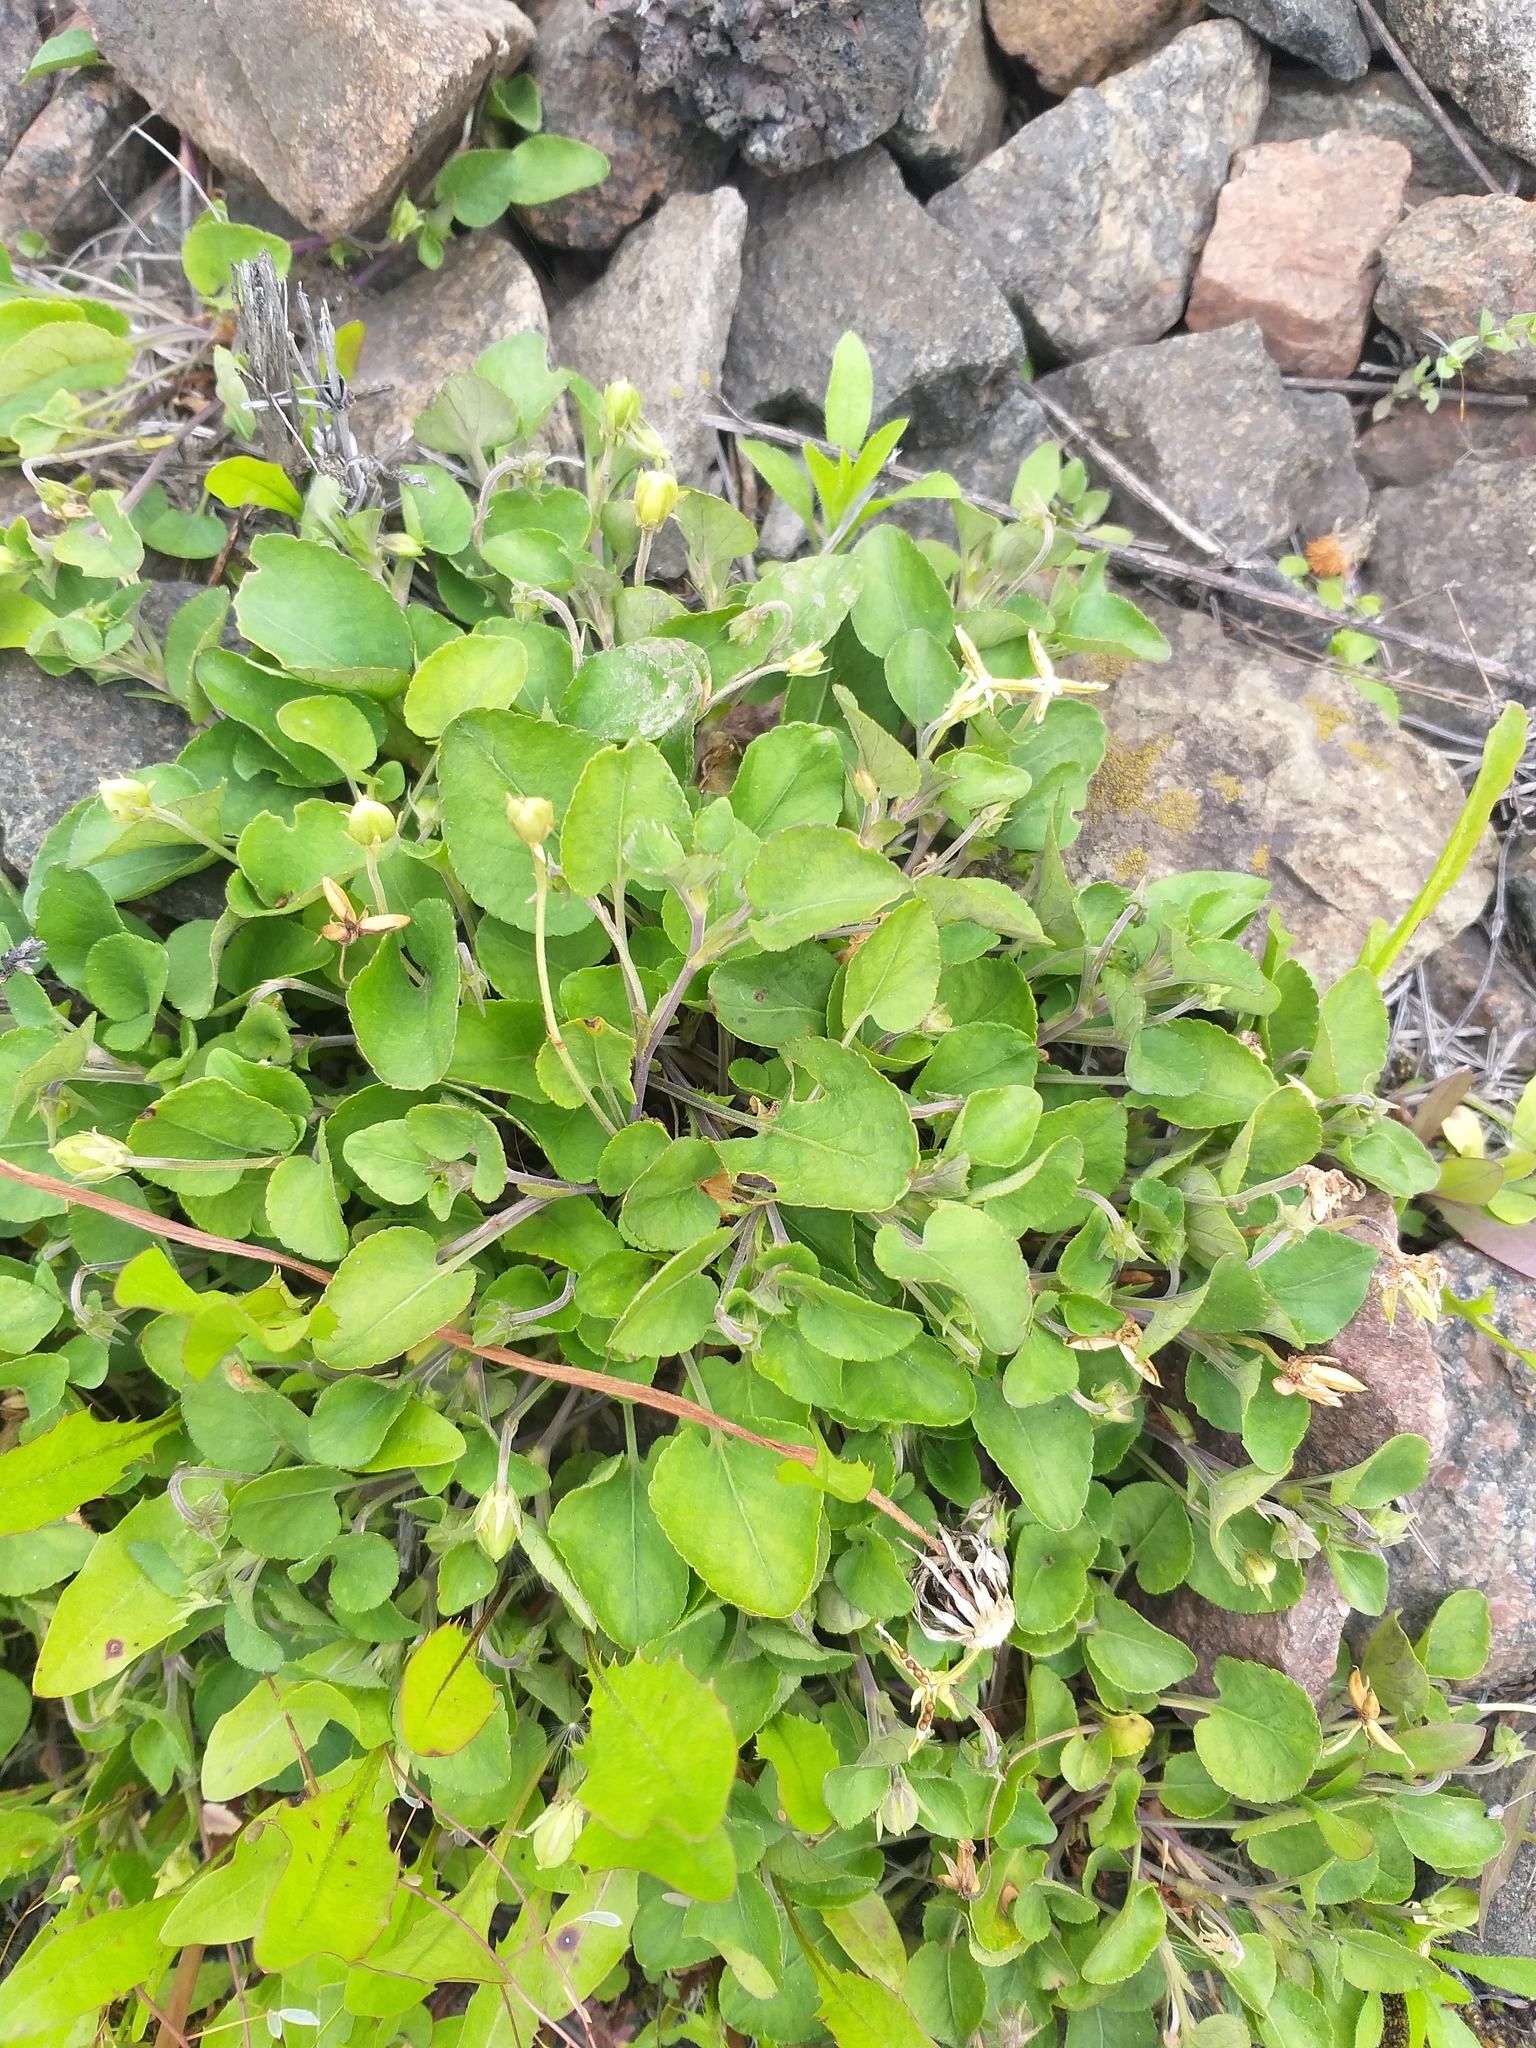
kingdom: Plantae
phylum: Tracheophyta
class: Magnoliopsida
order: Malpighiales
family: Violaceae
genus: Viola
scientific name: Viola rupestris
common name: Teesdale violet
